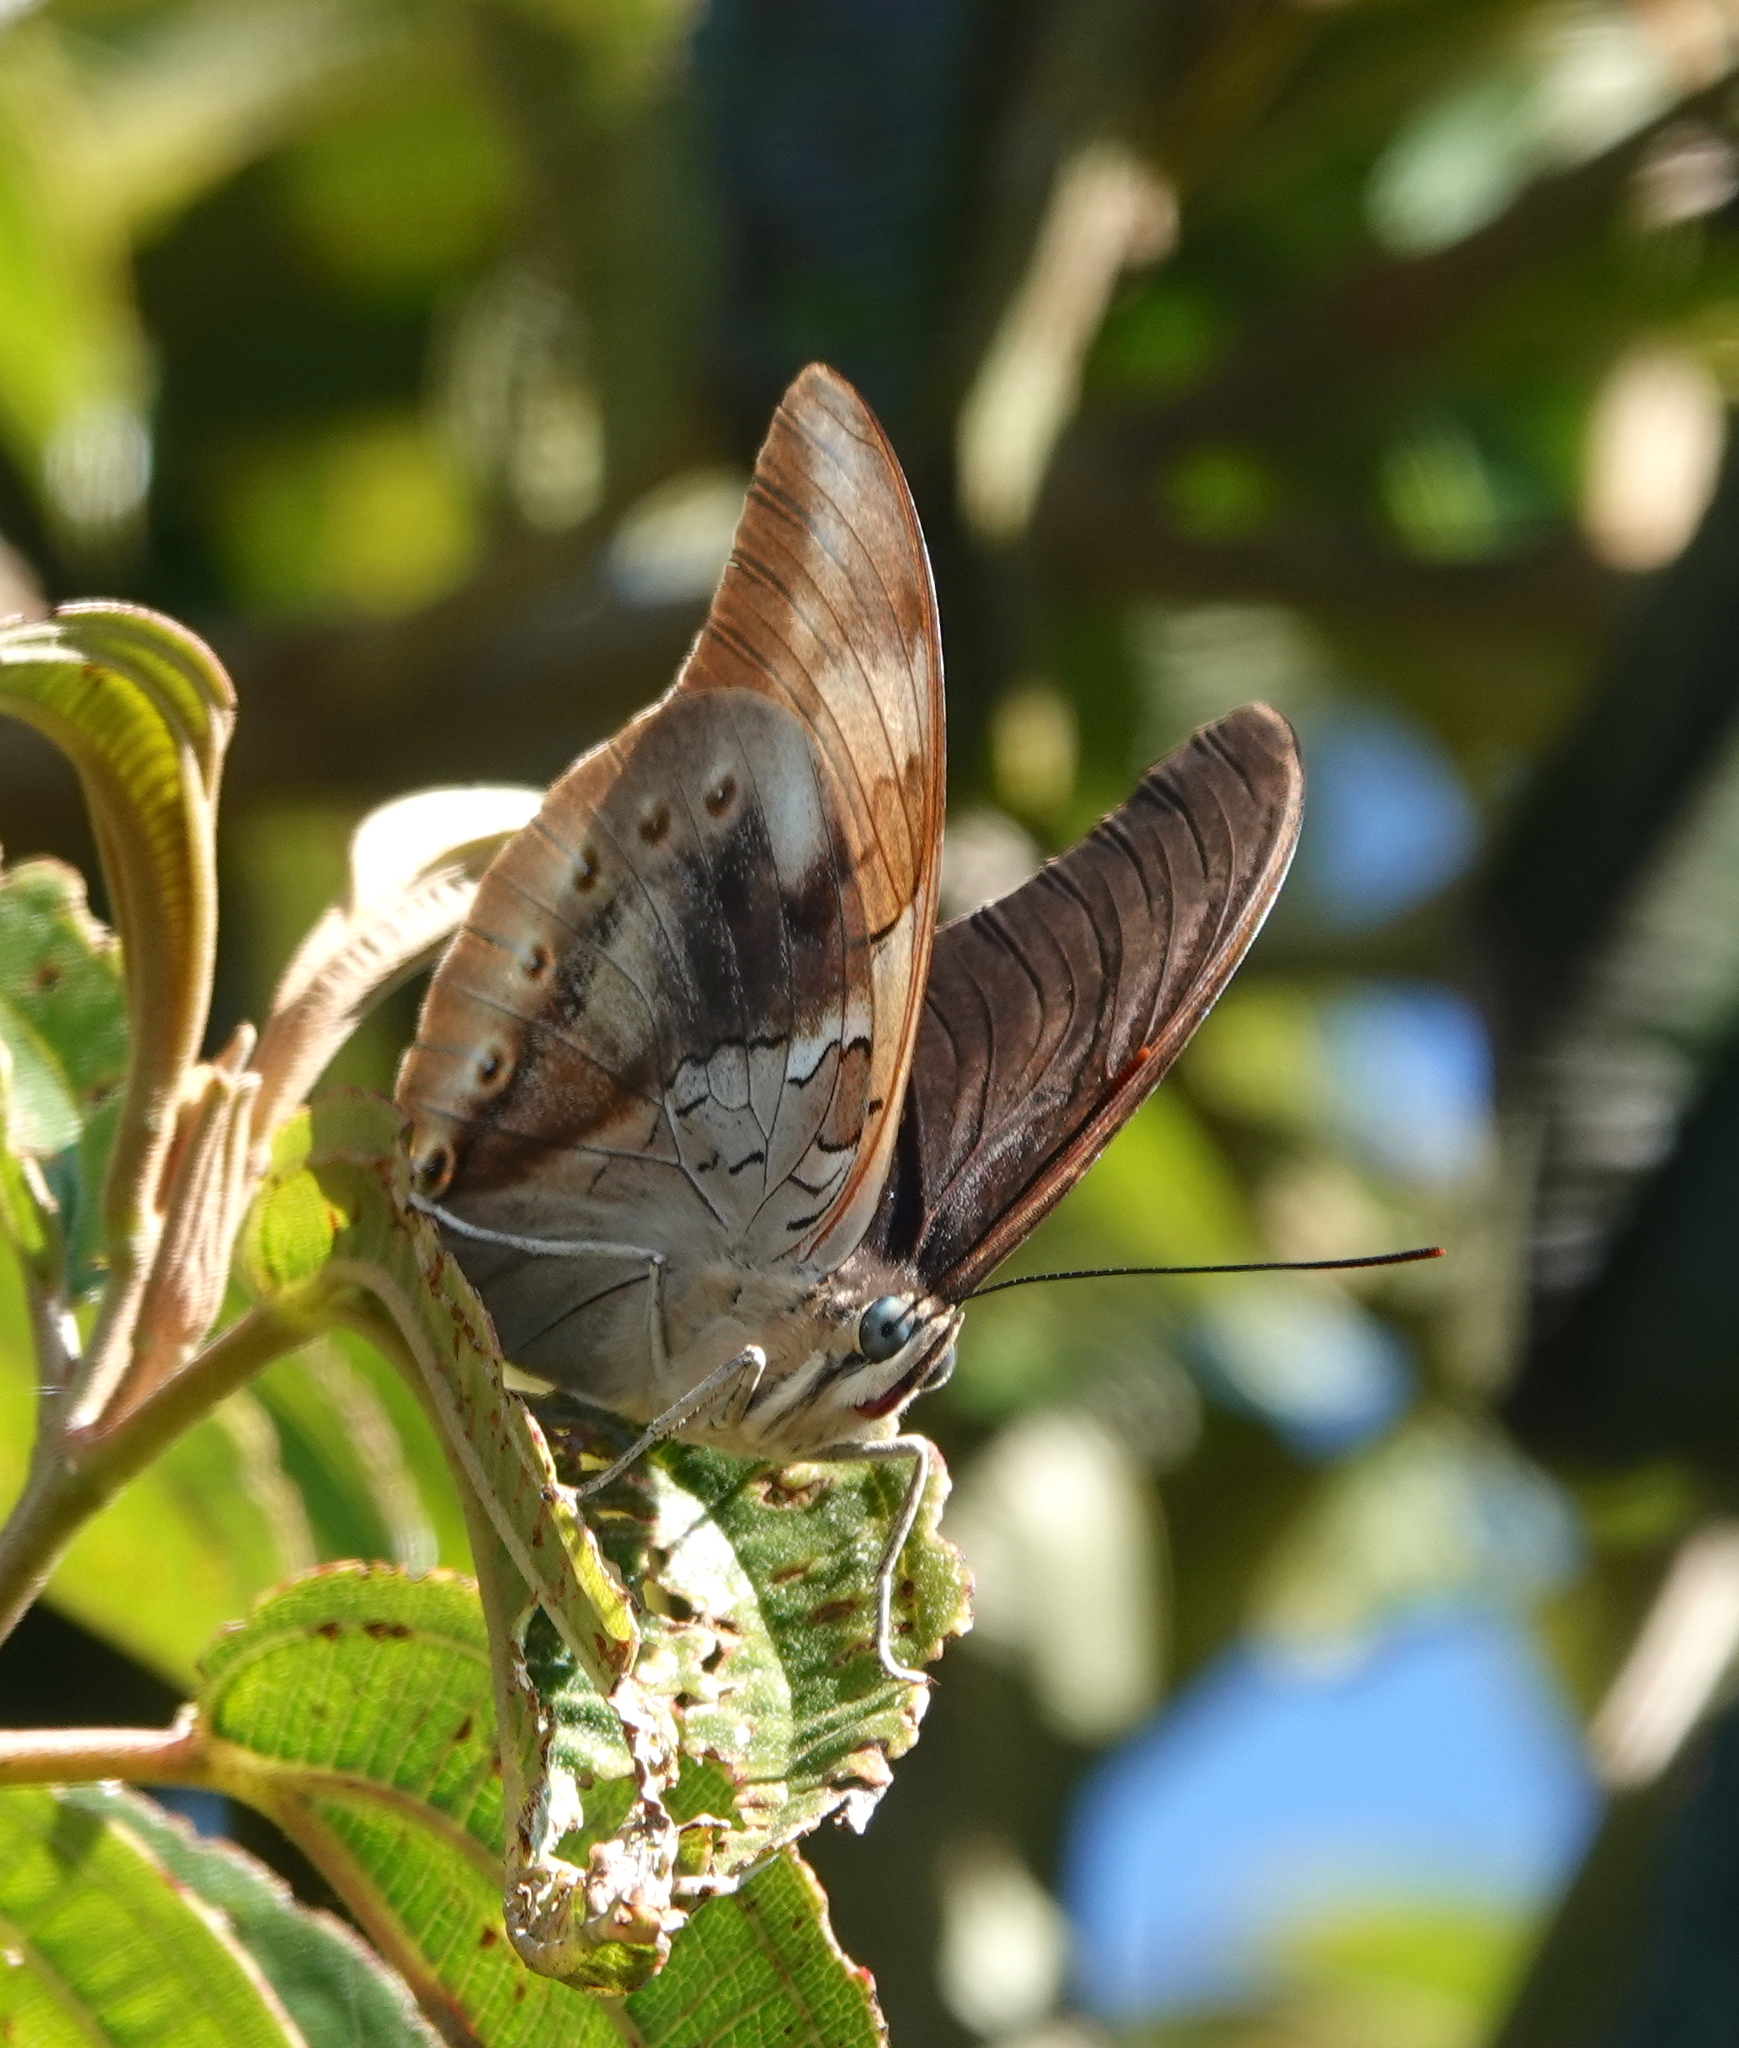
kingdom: Animalia
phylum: Arthropoda
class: Insecta
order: Lepidoptera
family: Nymphalidae
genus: Prepona
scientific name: Prepona
